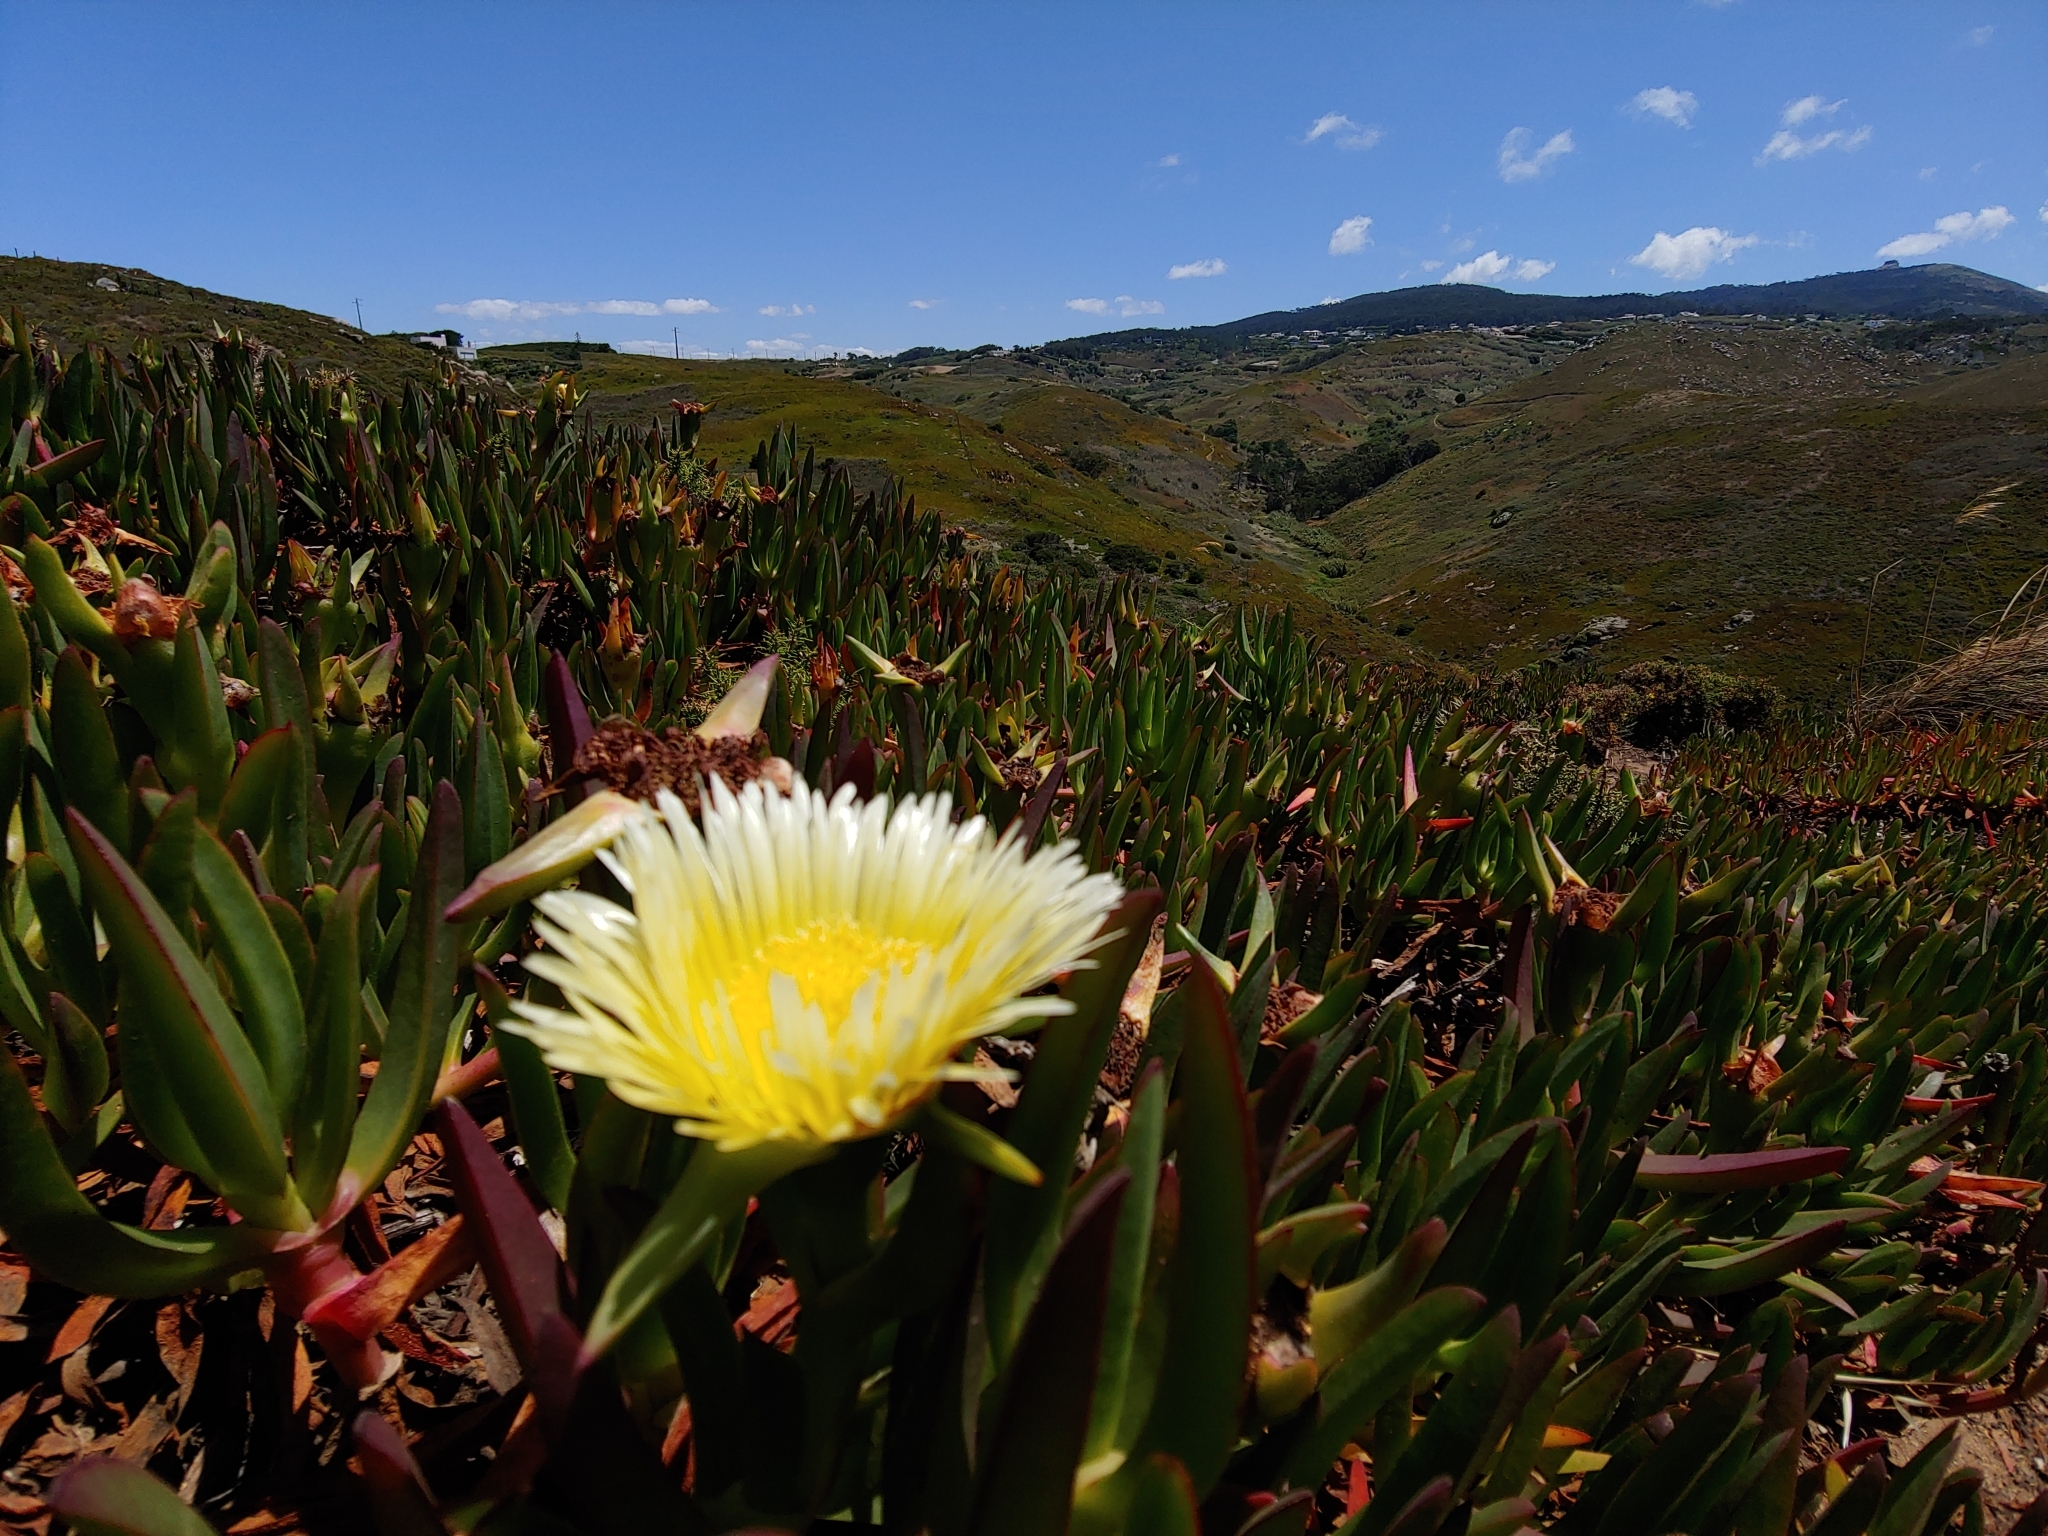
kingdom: Plantae
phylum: Tracheophyta
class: Magnoliopsida
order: Caryophyllales
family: Aizoaceae
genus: Carpobrotus
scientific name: Carpobrotus edulis
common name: Hottentot-fig
